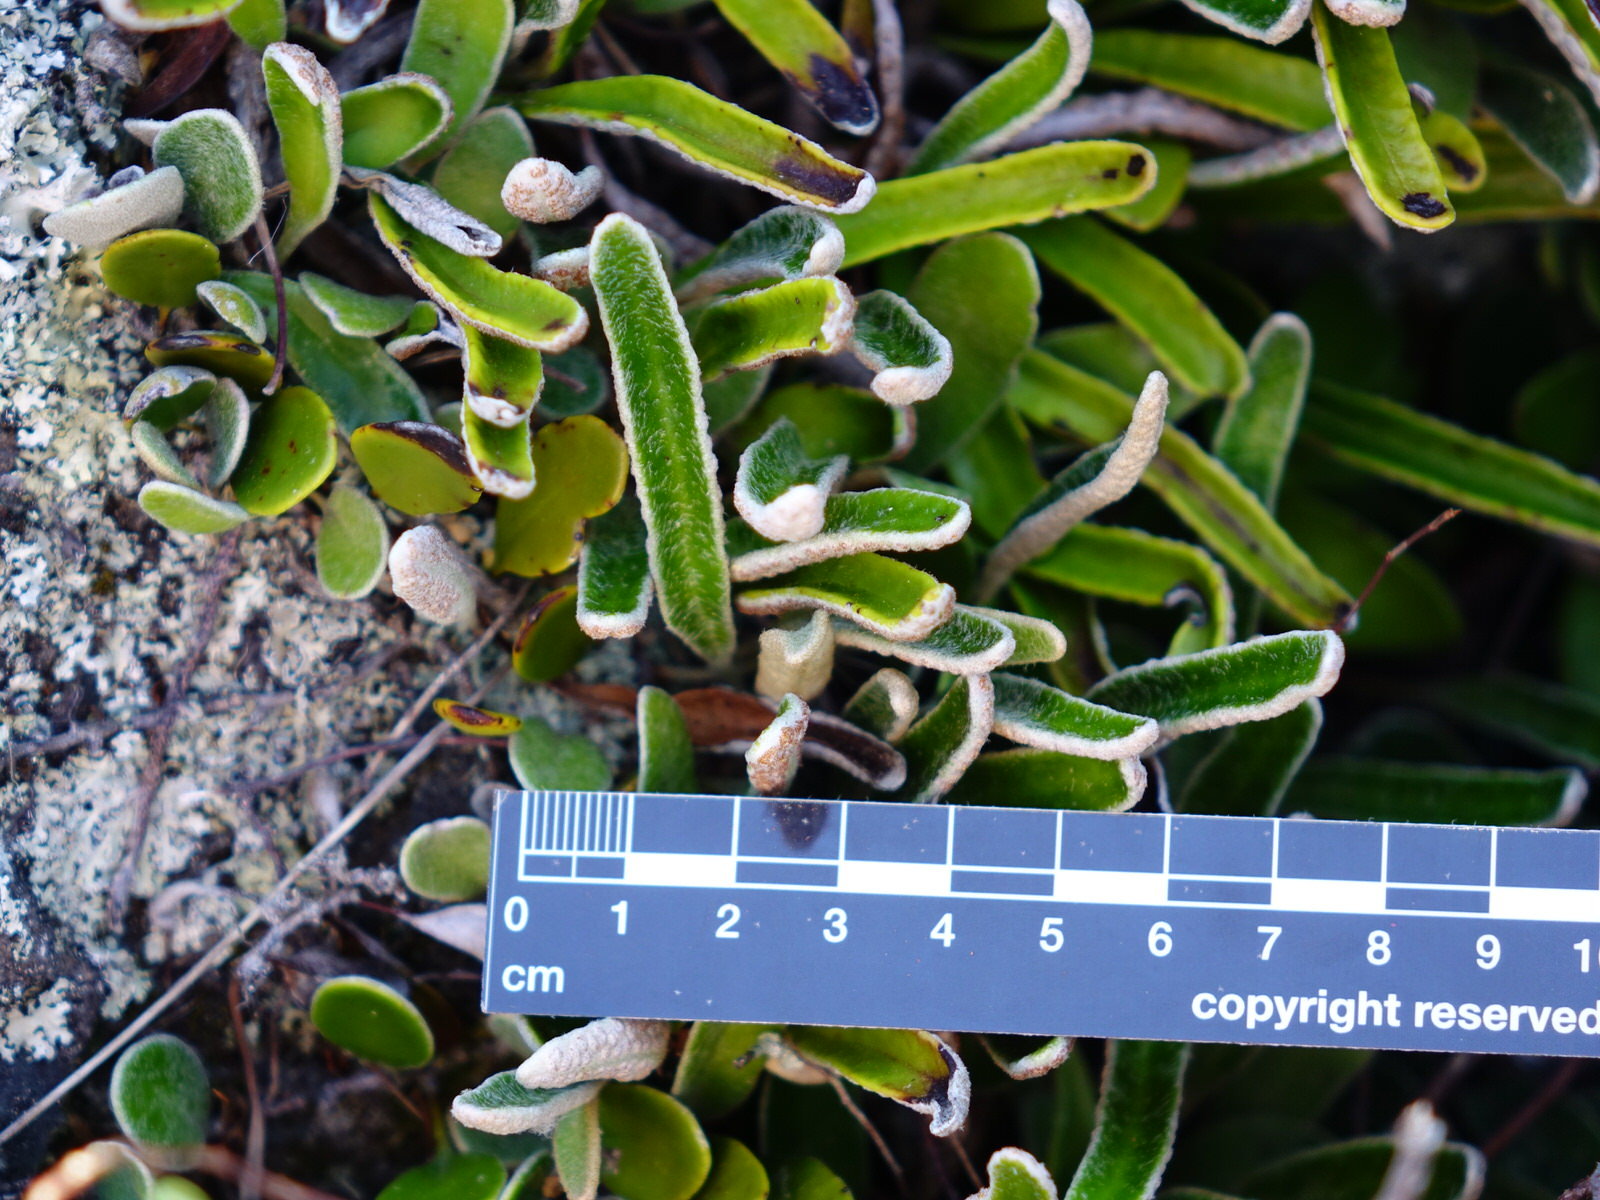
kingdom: Plantae
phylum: Tracheophyta
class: Polypodiopsida
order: Polypodiales
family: Polypodiaceae
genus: Pyrrosia
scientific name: Pyrrosia eleagnifolia
